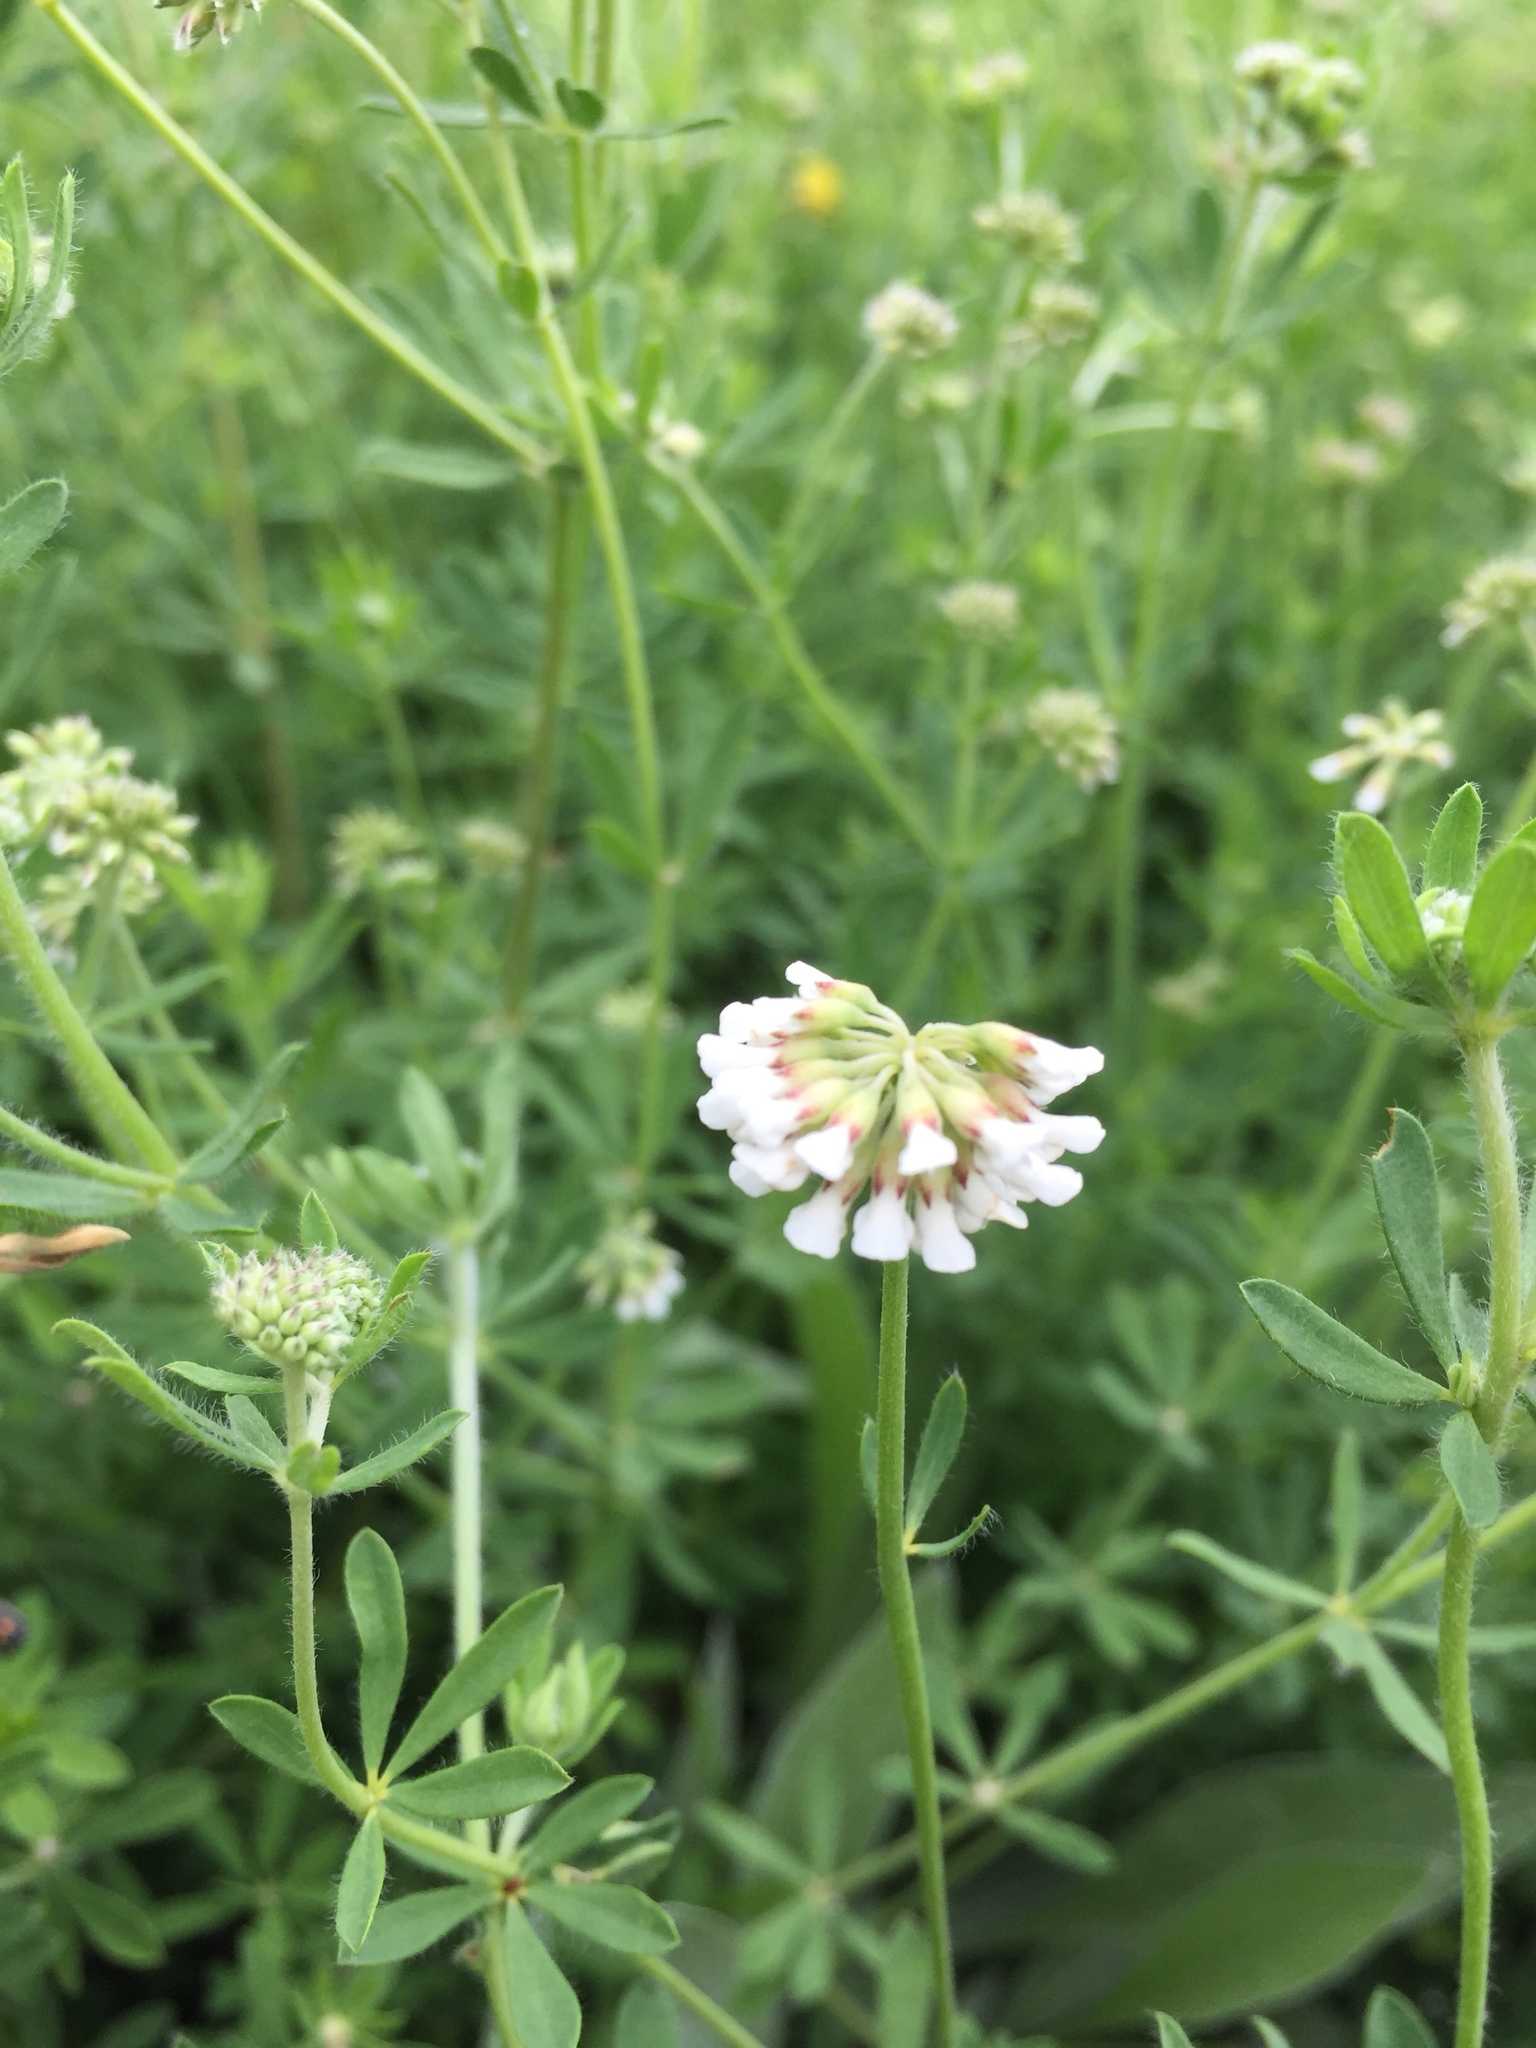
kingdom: Plantae
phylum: Tracheophyta
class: Magnoliopsida
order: Fabales
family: Fabaceae
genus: Lotus
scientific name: Lotus herbaceus
